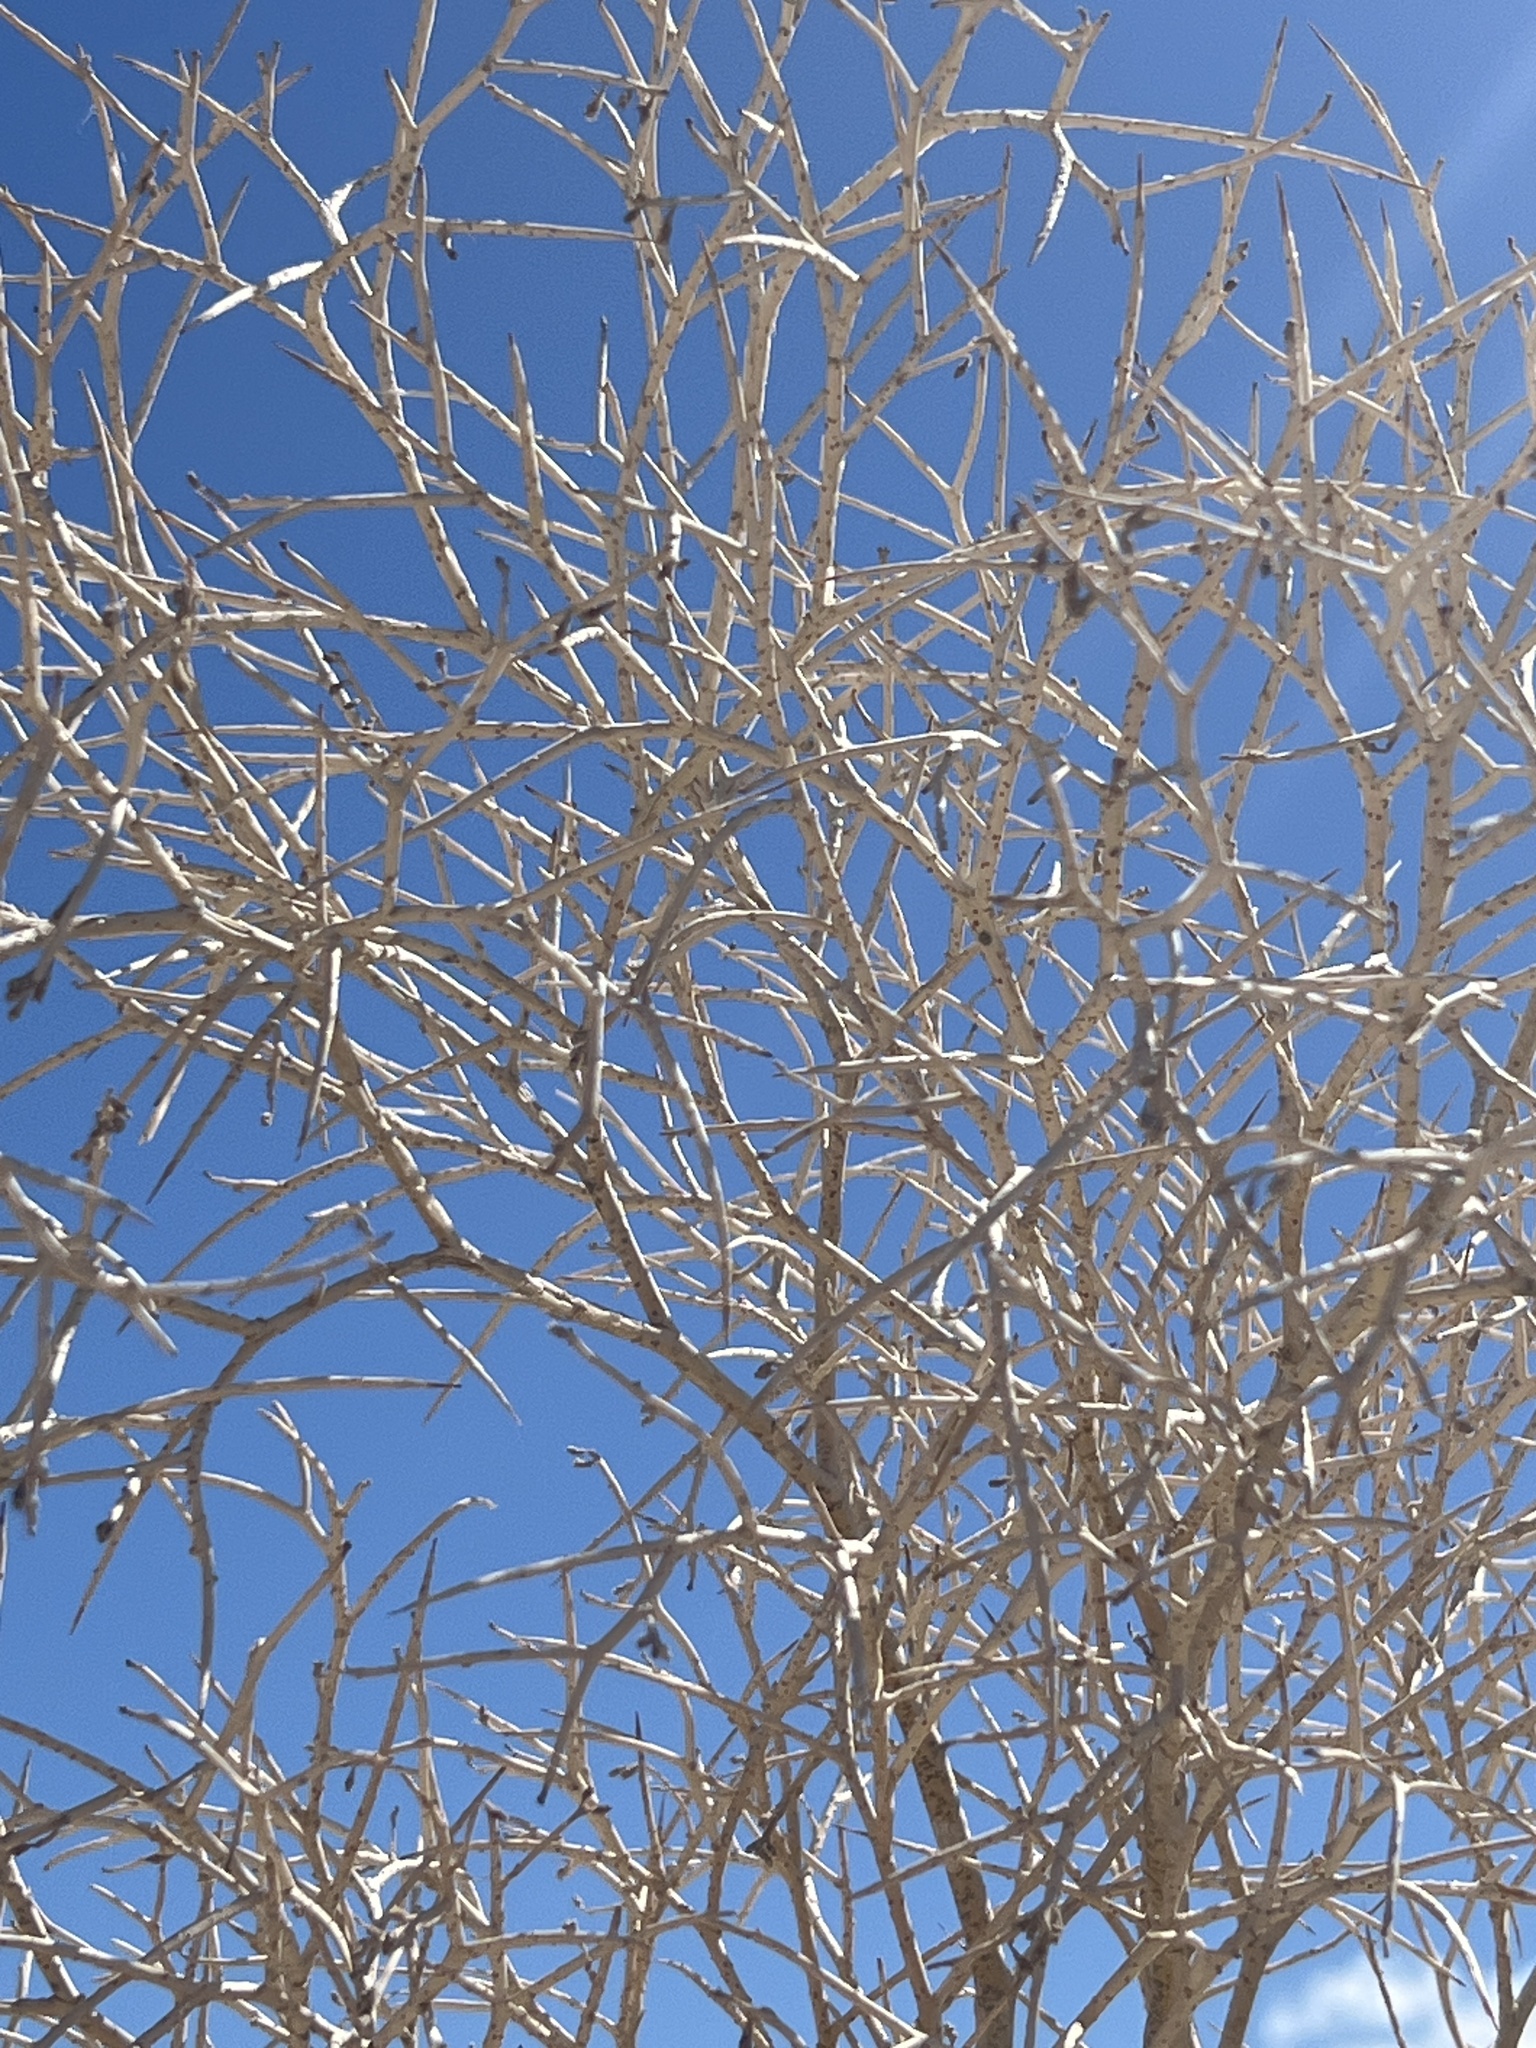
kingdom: Plantae
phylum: Tracheophyta
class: Magnoliopsida
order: Fabales
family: Fabaceae
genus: Psorothamnus
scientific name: Psorothamnus spinosus
